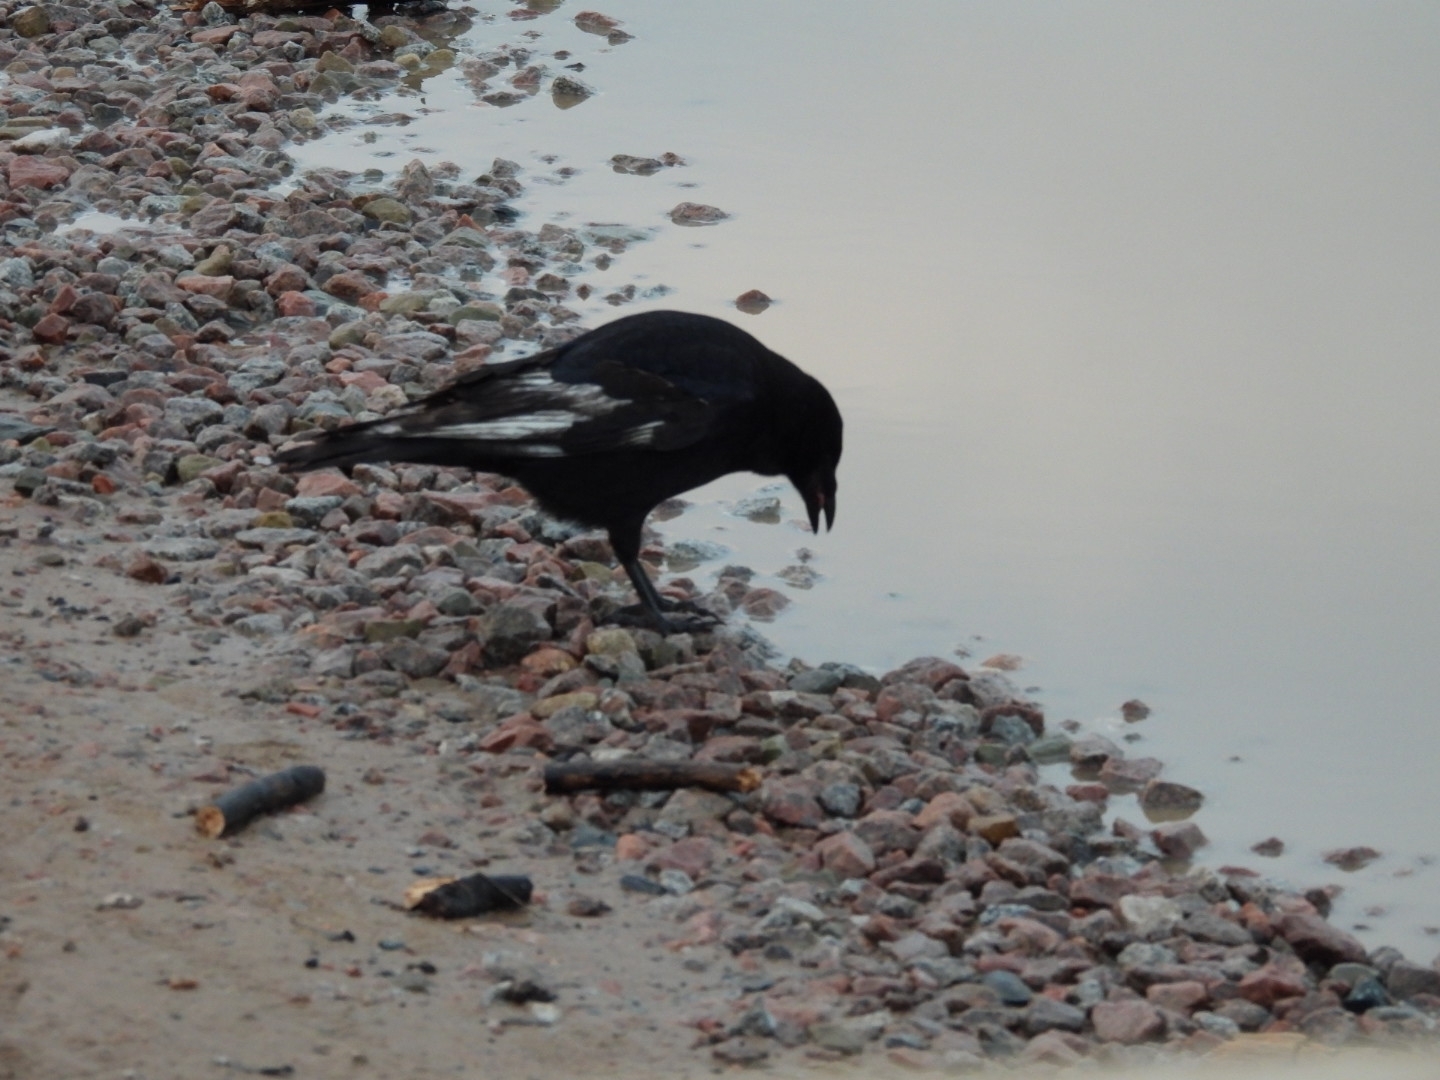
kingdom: Animalia
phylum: Chordata
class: Aves
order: Passeriformes
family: Corvidae
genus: Corvus
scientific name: Corvus corone
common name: Carrion crow
